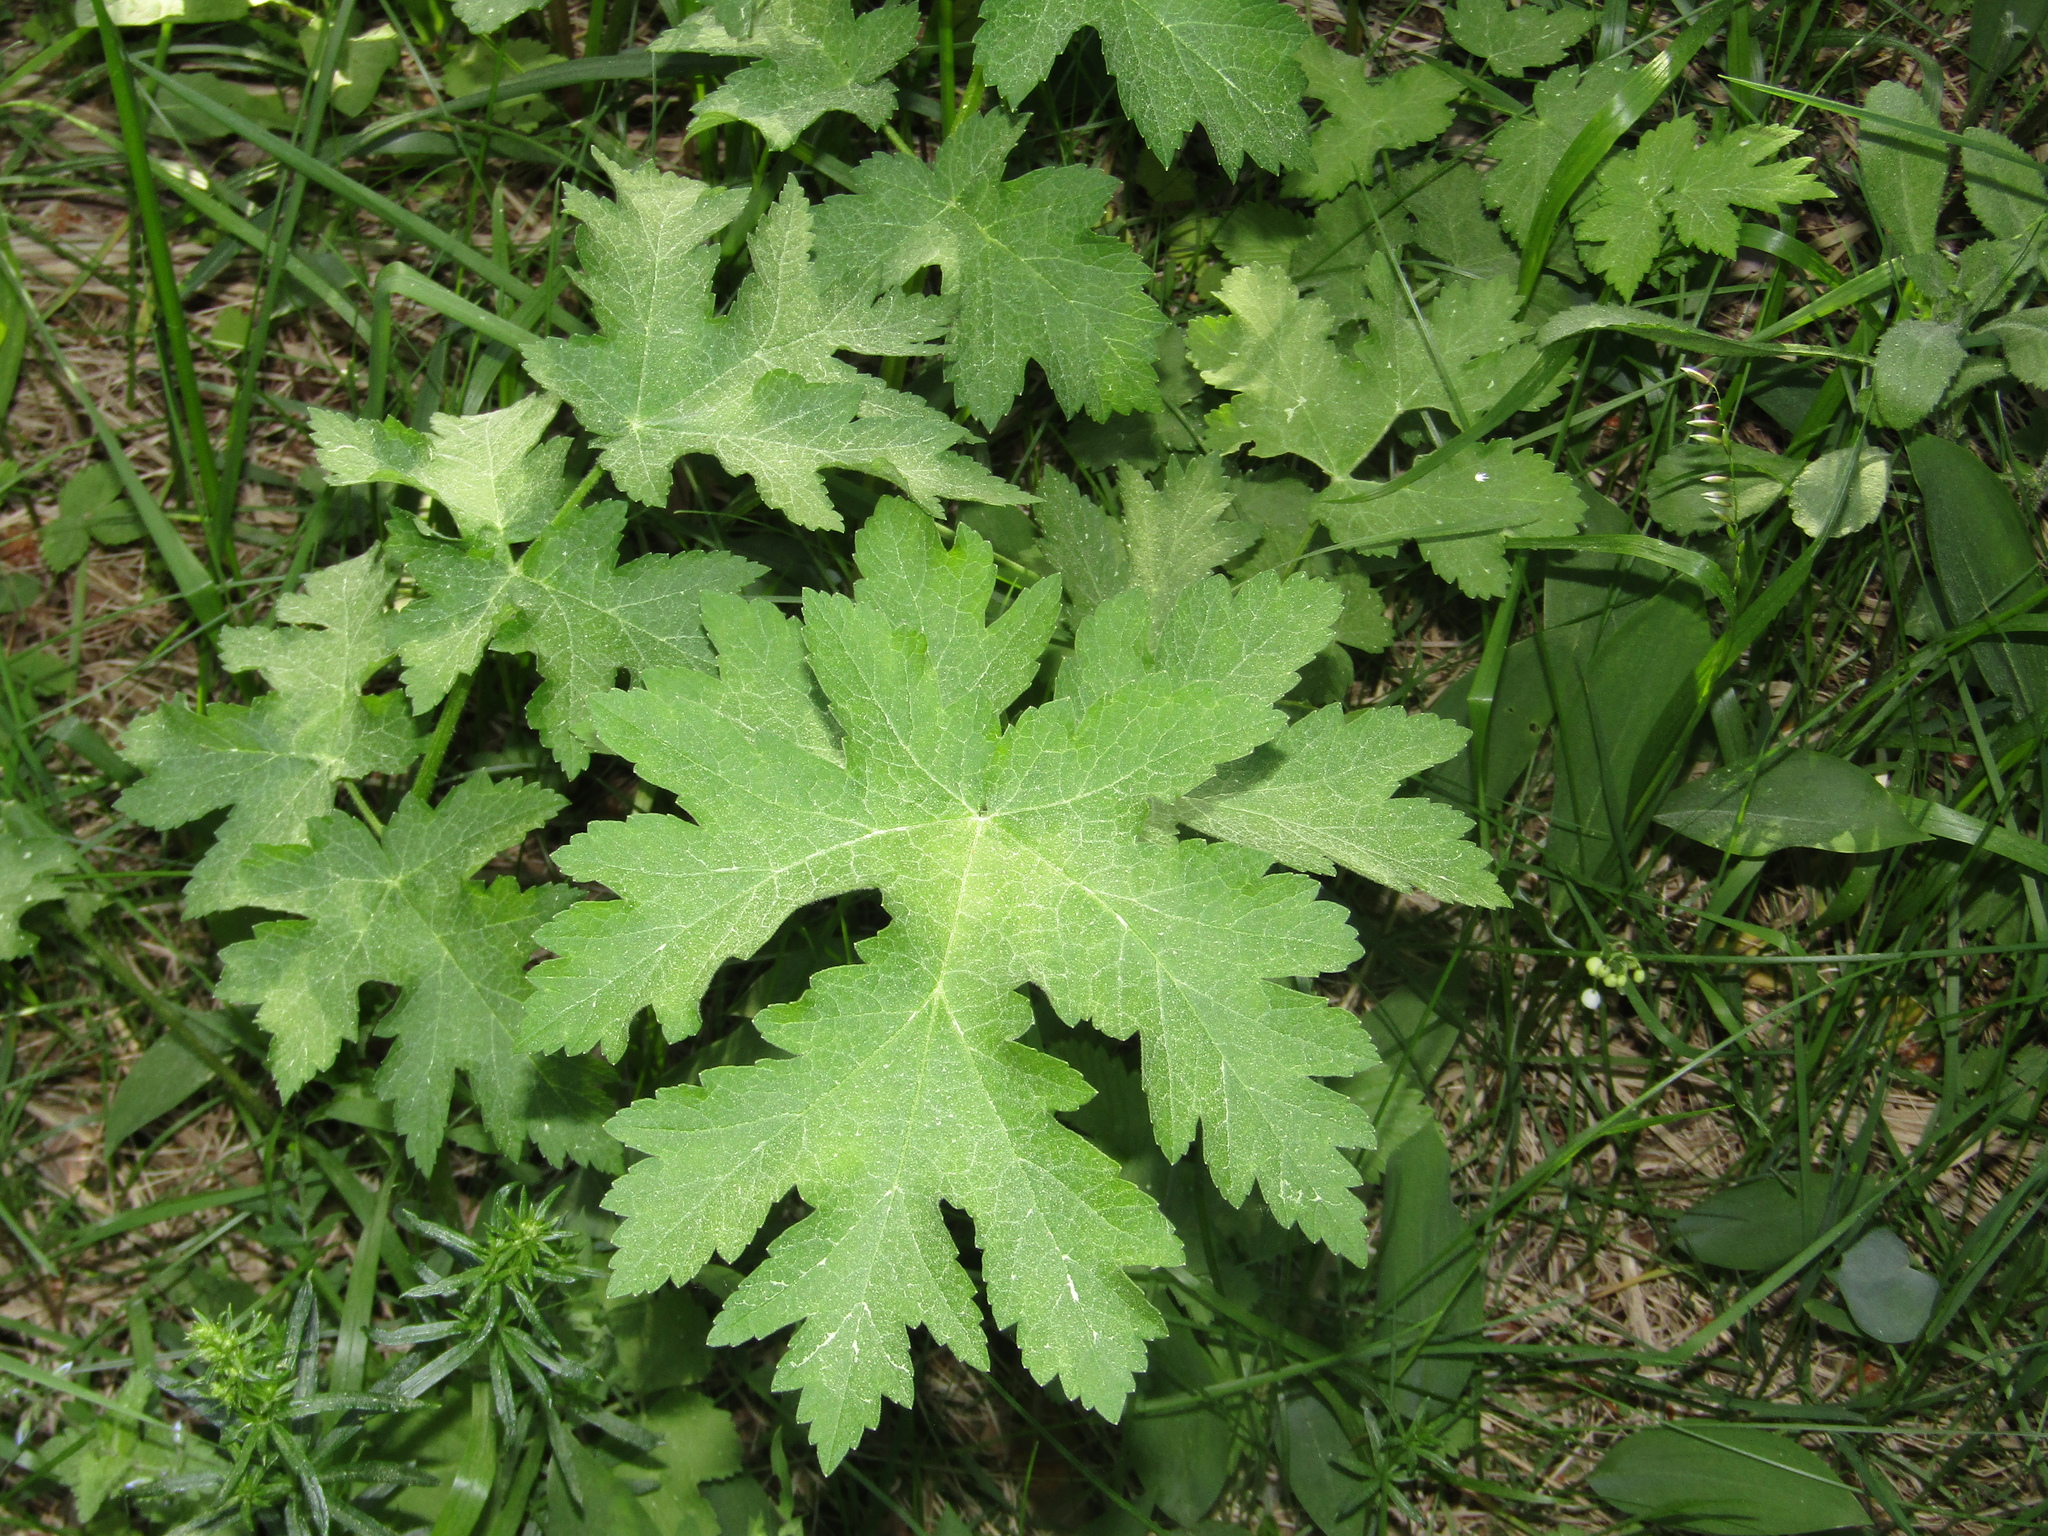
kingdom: Plantae
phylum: Tracheophyta
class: Magnoliopsida
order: Apiales
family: Apiaceae
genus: Heracleum
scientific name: Heracleum sphondylium
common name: Hogweed
